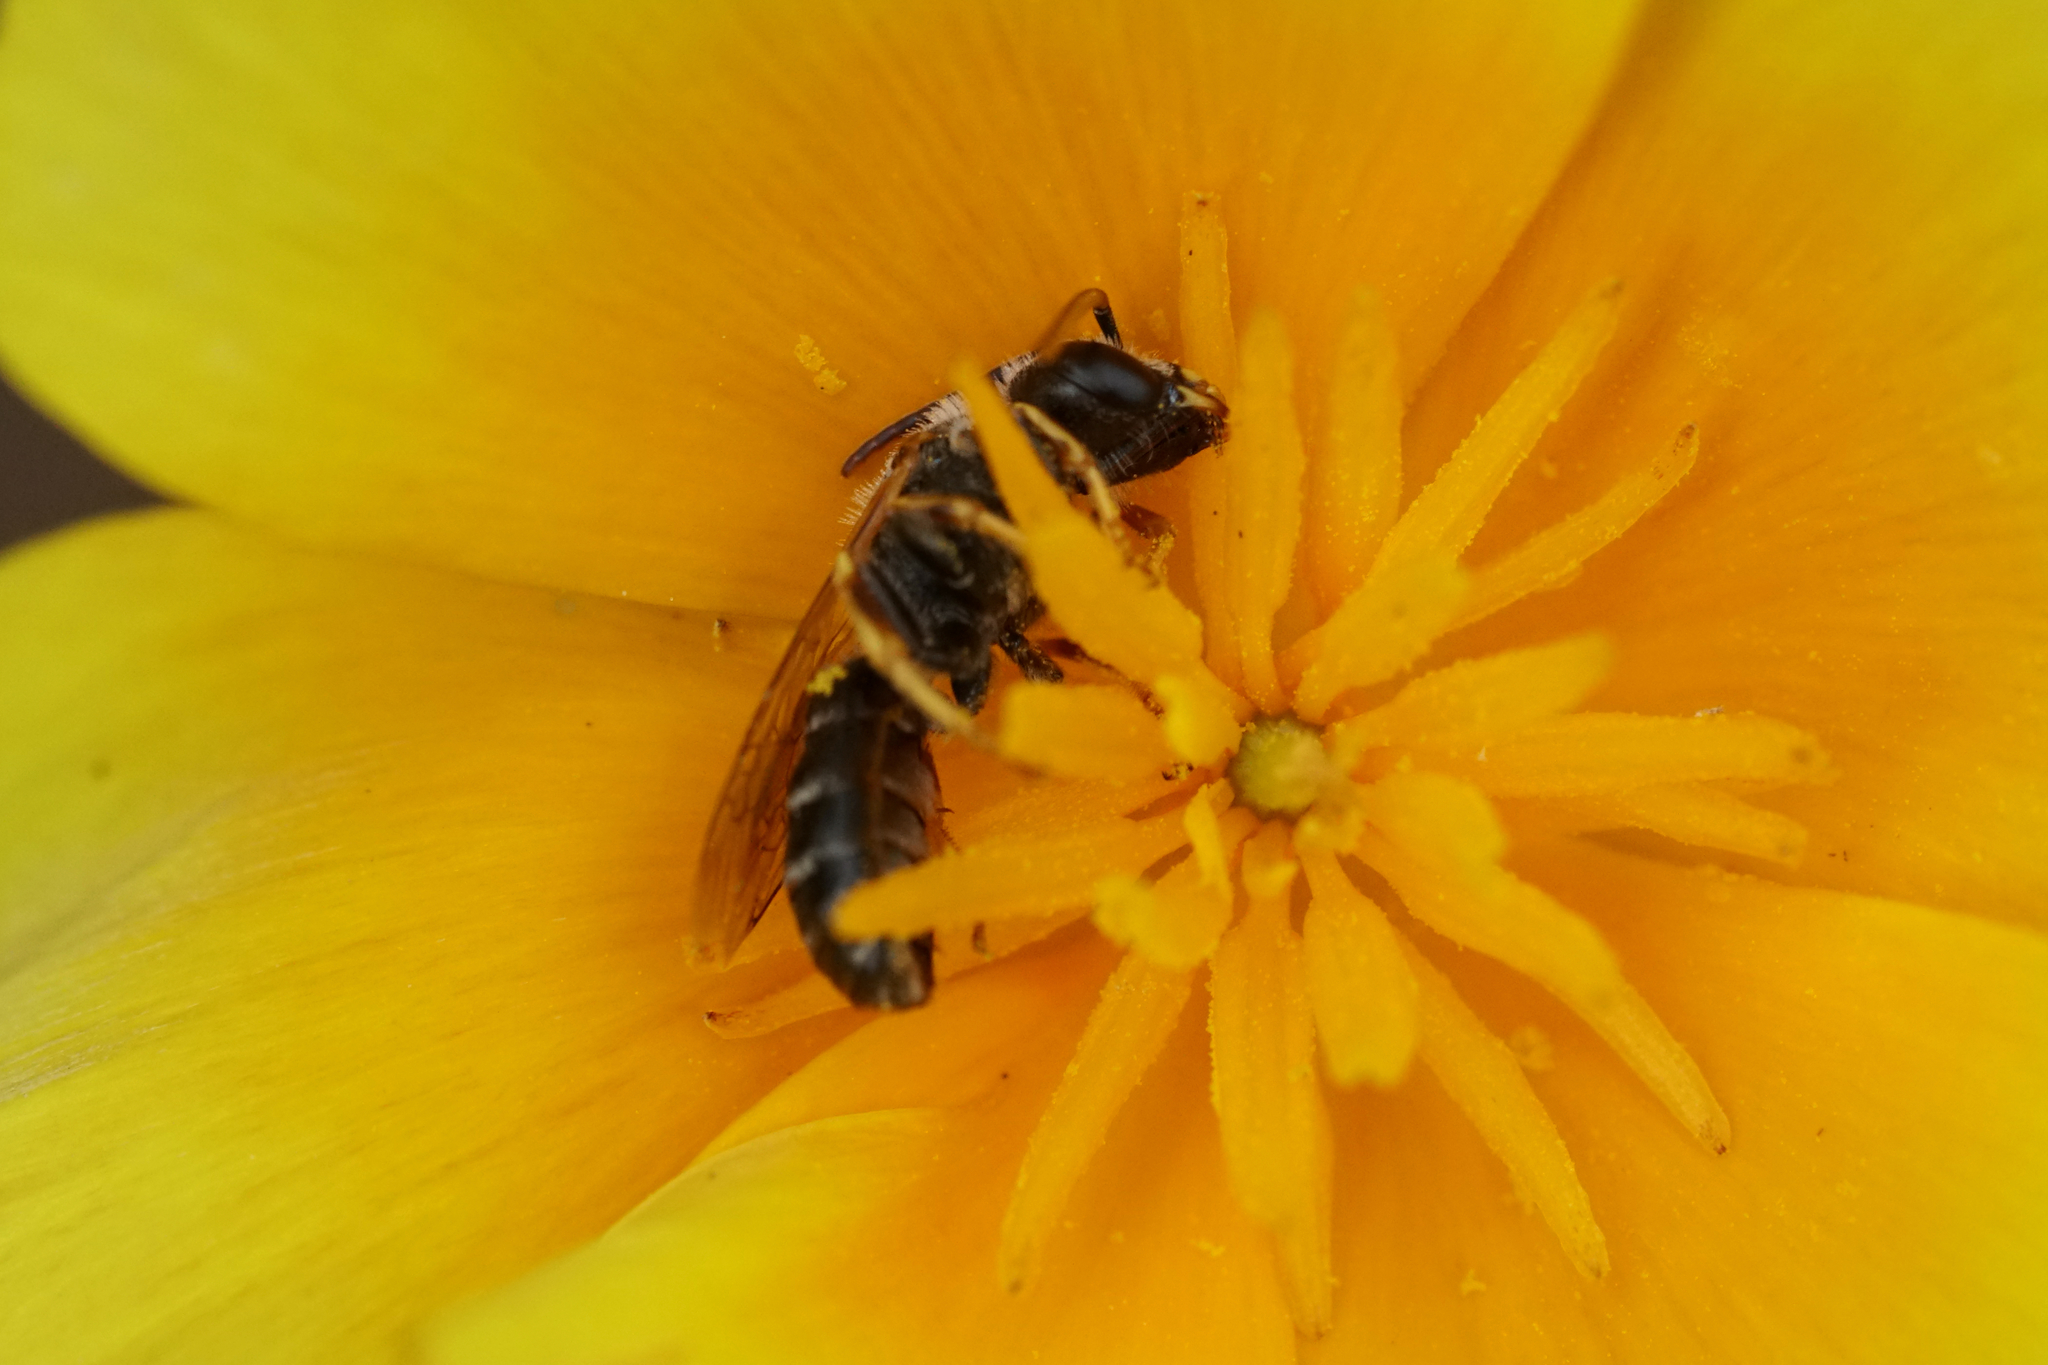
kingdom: Animalia
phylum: Arthropoda
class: Insecta
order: Hymenoptera
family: Halictidae
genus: Halictus
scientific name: Halictus ligatus
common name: Ligated furrow bee
